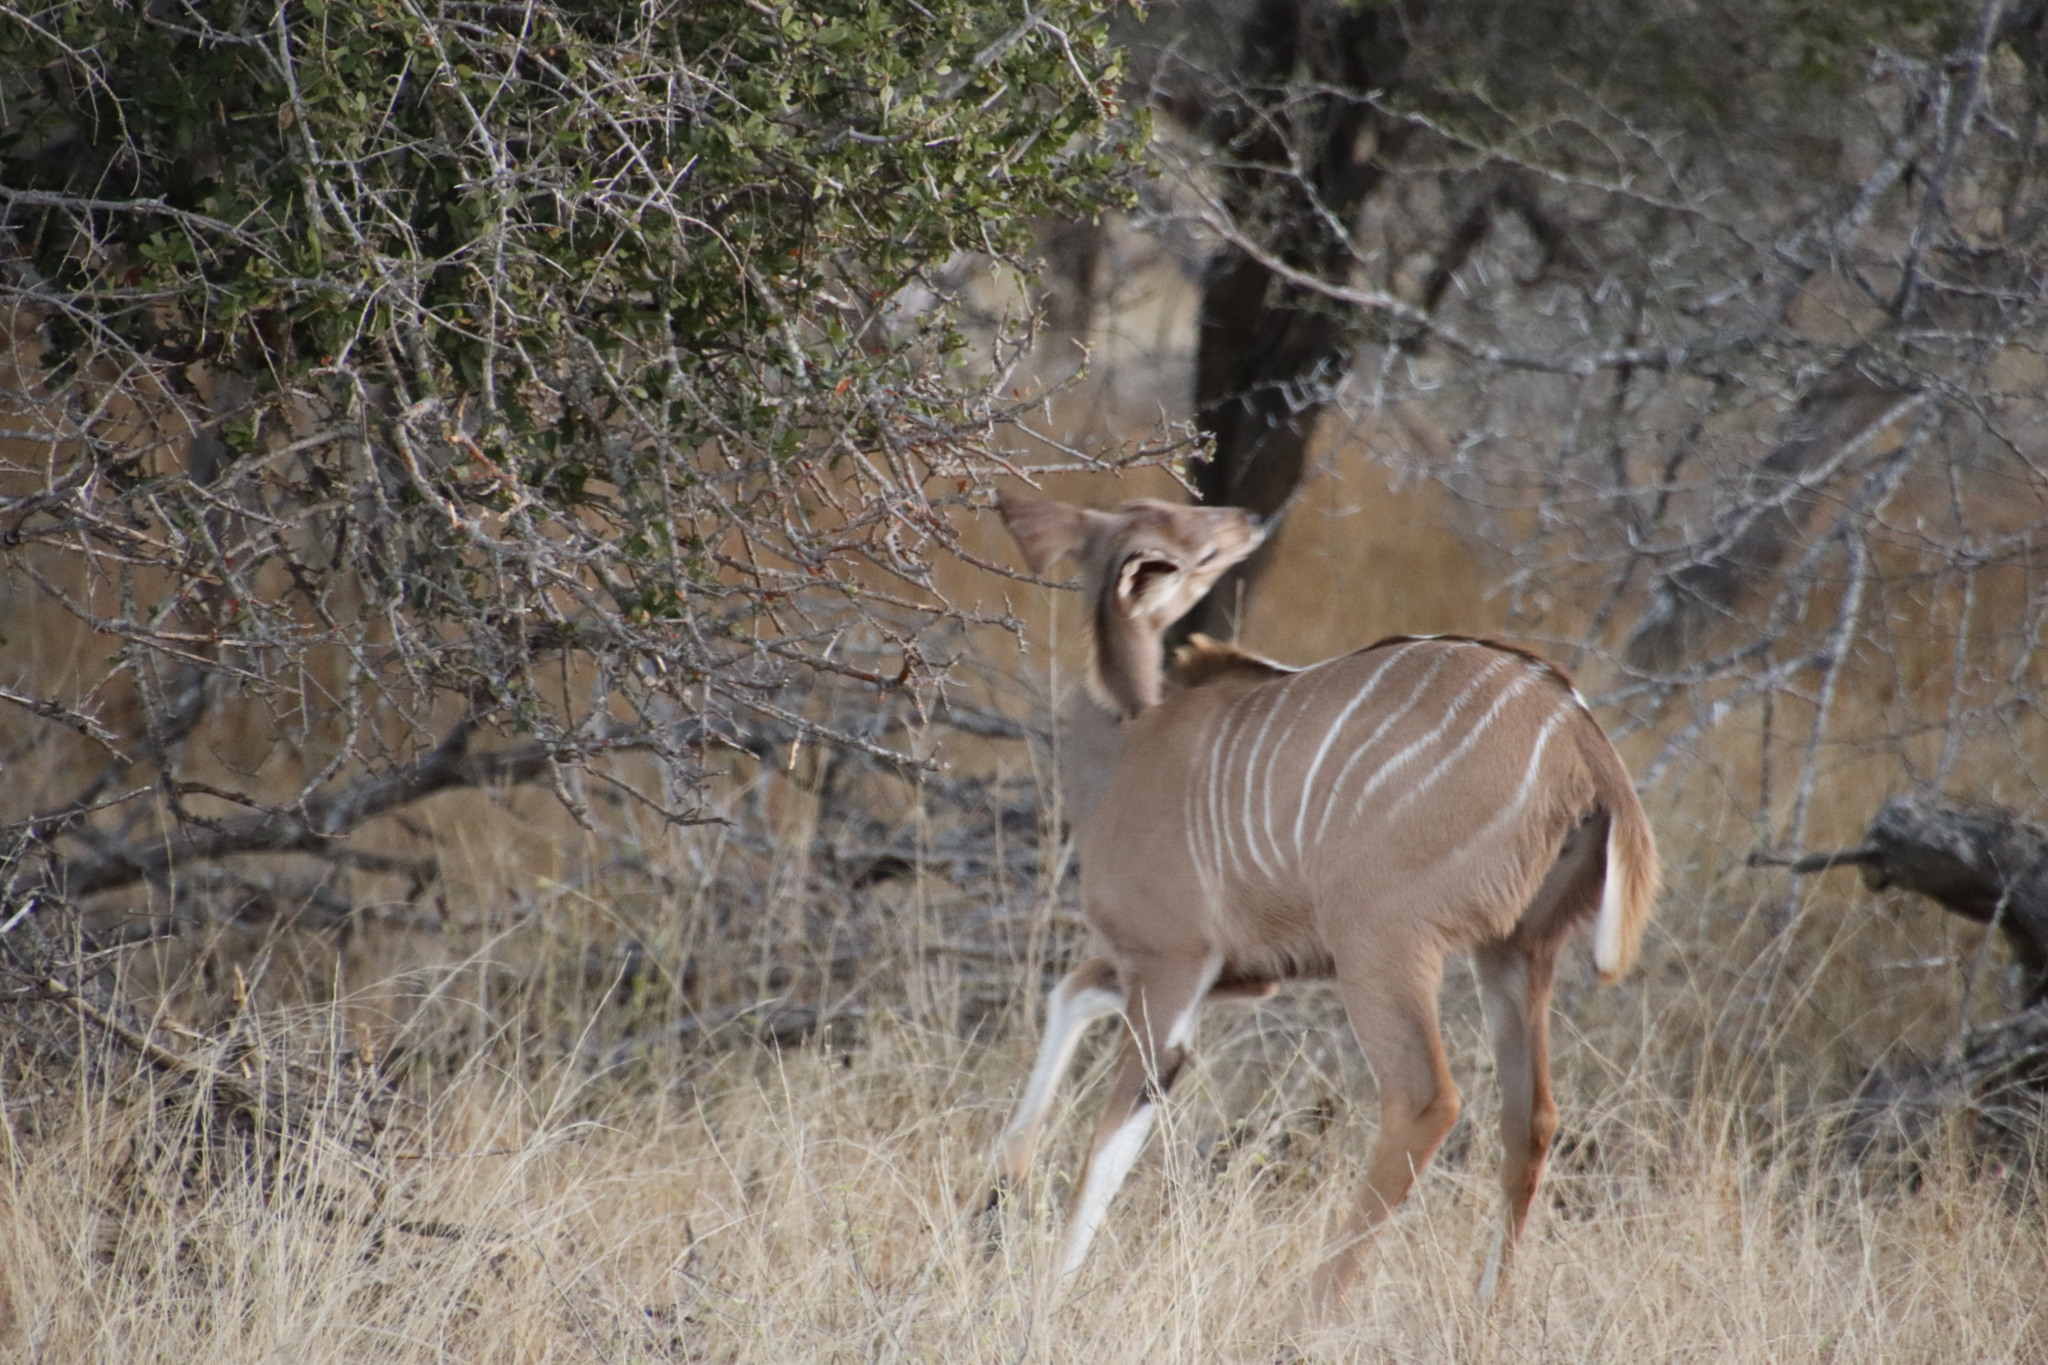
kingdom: Animalia
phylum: Chordata
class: Mammalia
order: Artiodactyla
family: Bovidae
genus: Tragelaphus
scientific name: Tragelaphus strepsiceros
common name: Greater kudu
